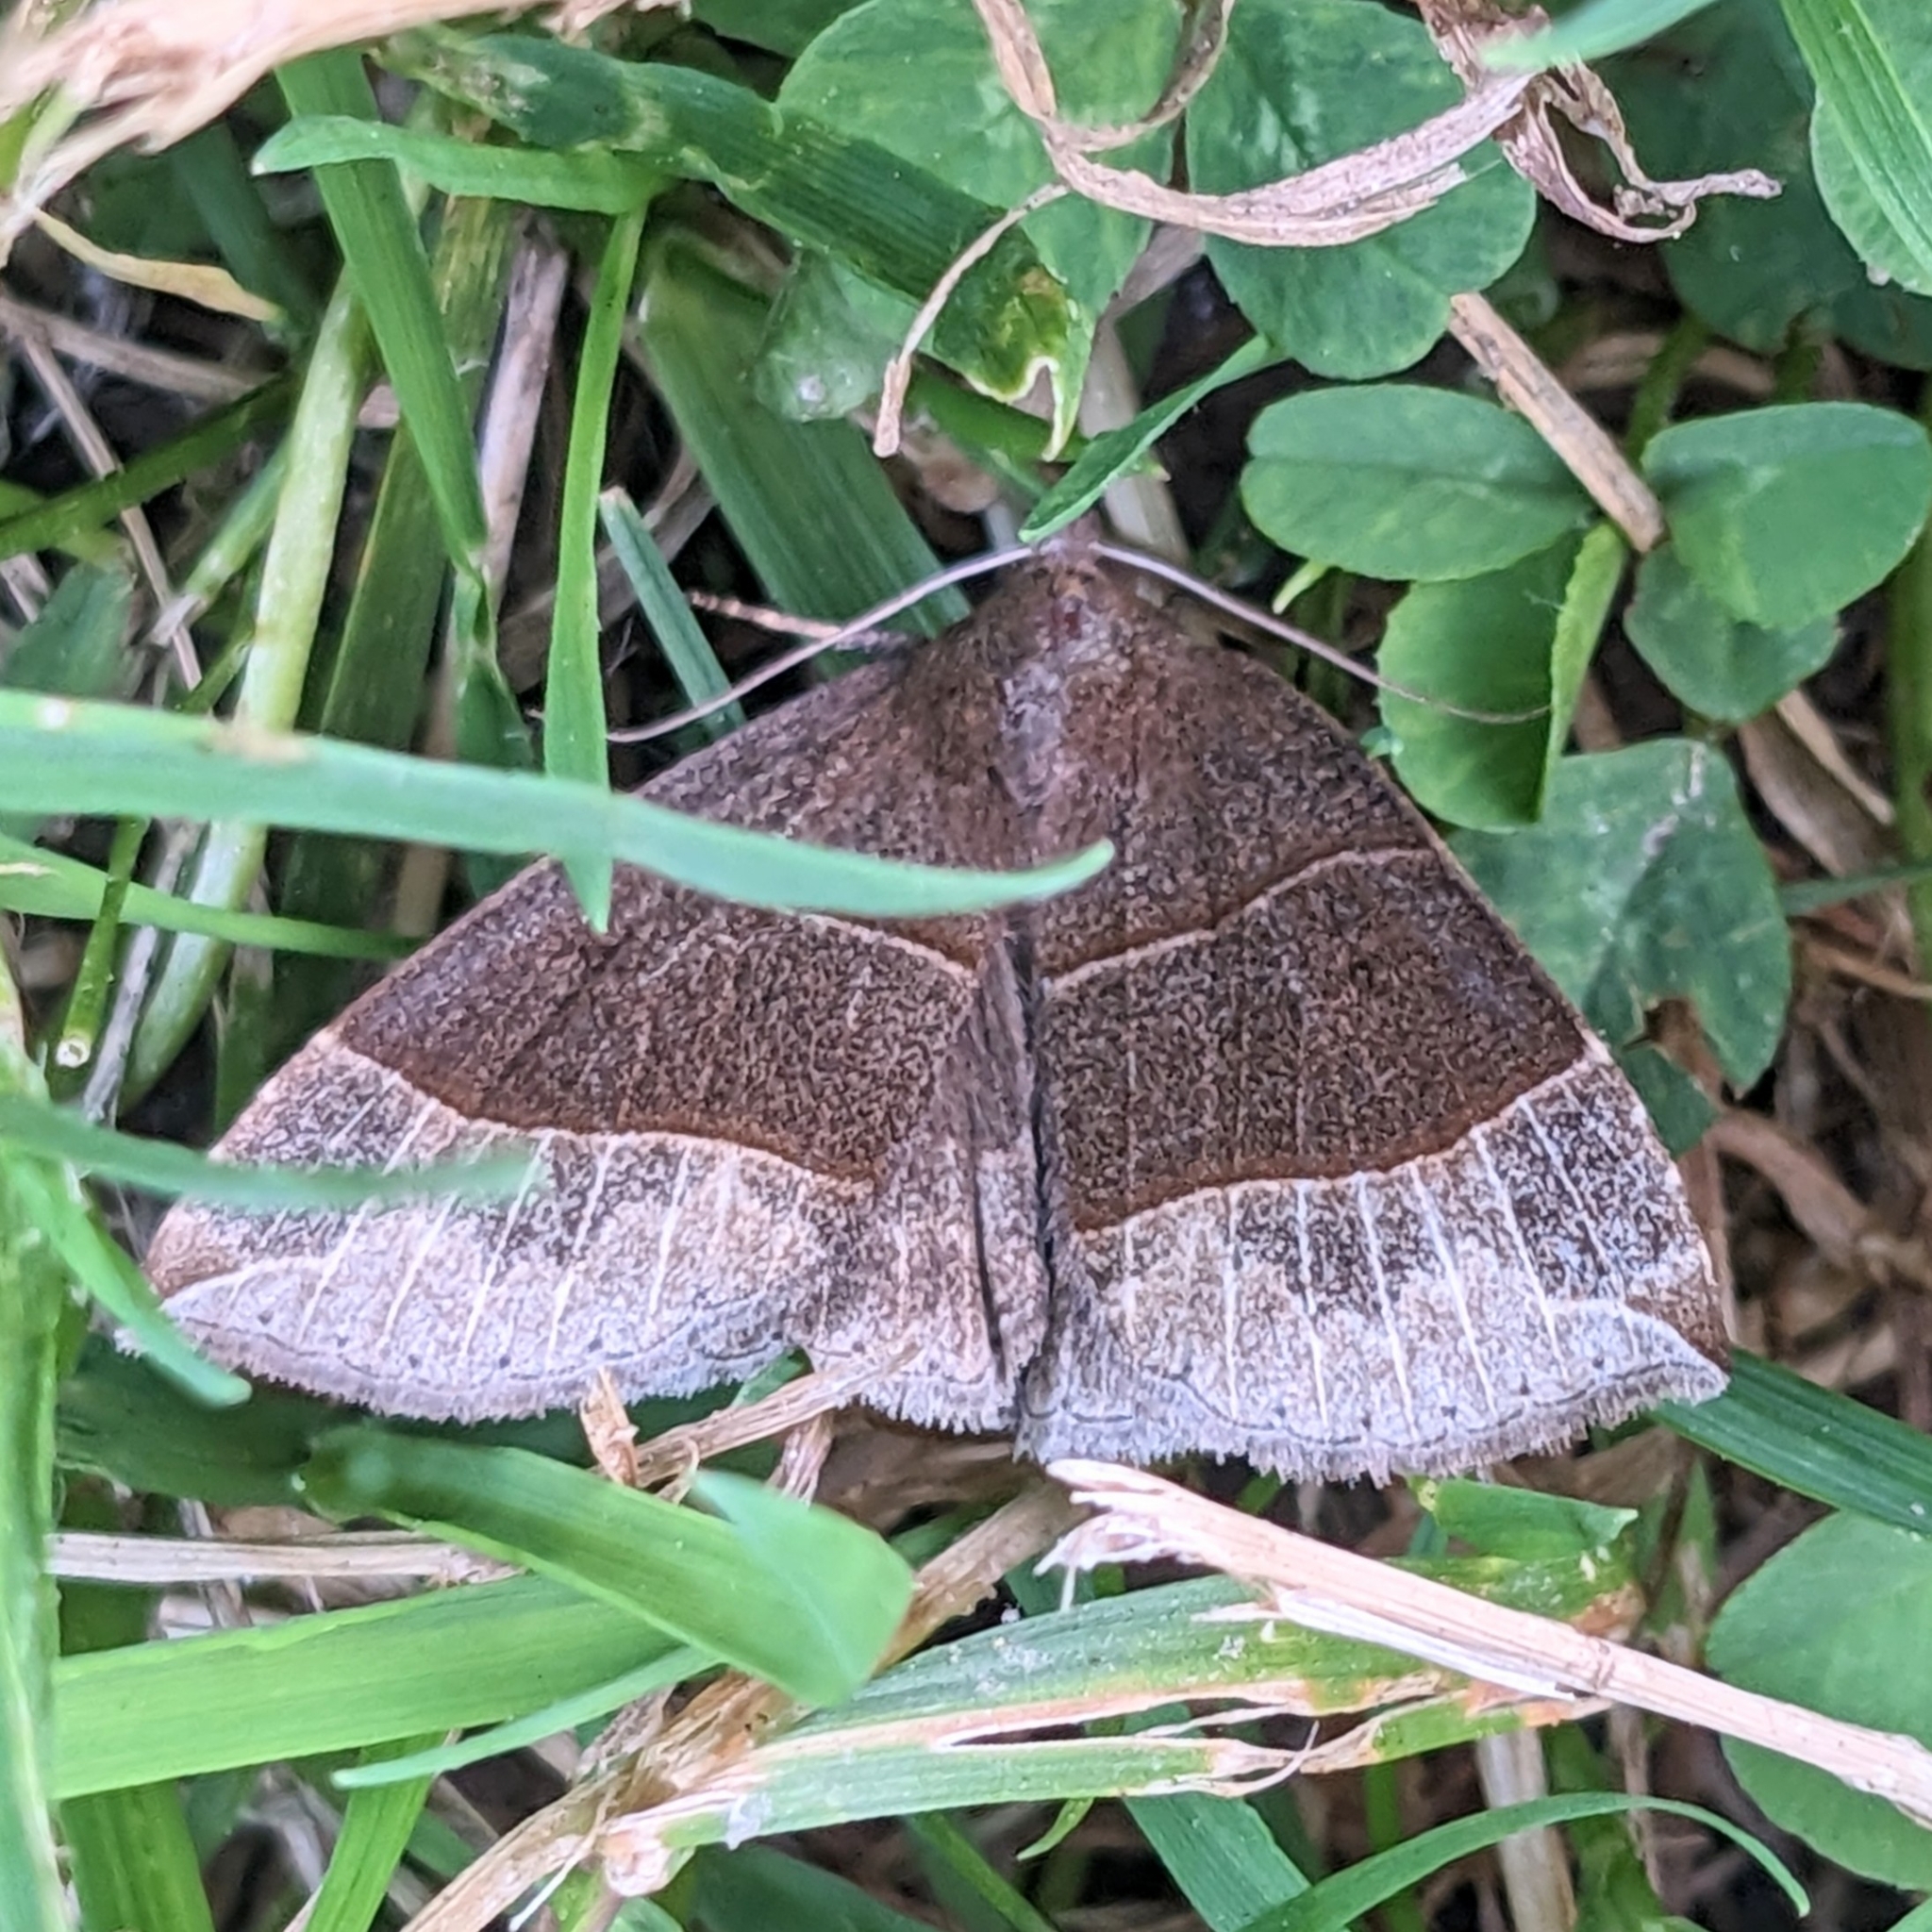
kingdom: Animalia
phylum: Arthropoda
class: Insecta
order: Lepidoptera
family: Erebidae
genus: Parallelia
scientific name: Parallelia bistriaris
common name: Maple looper moth
